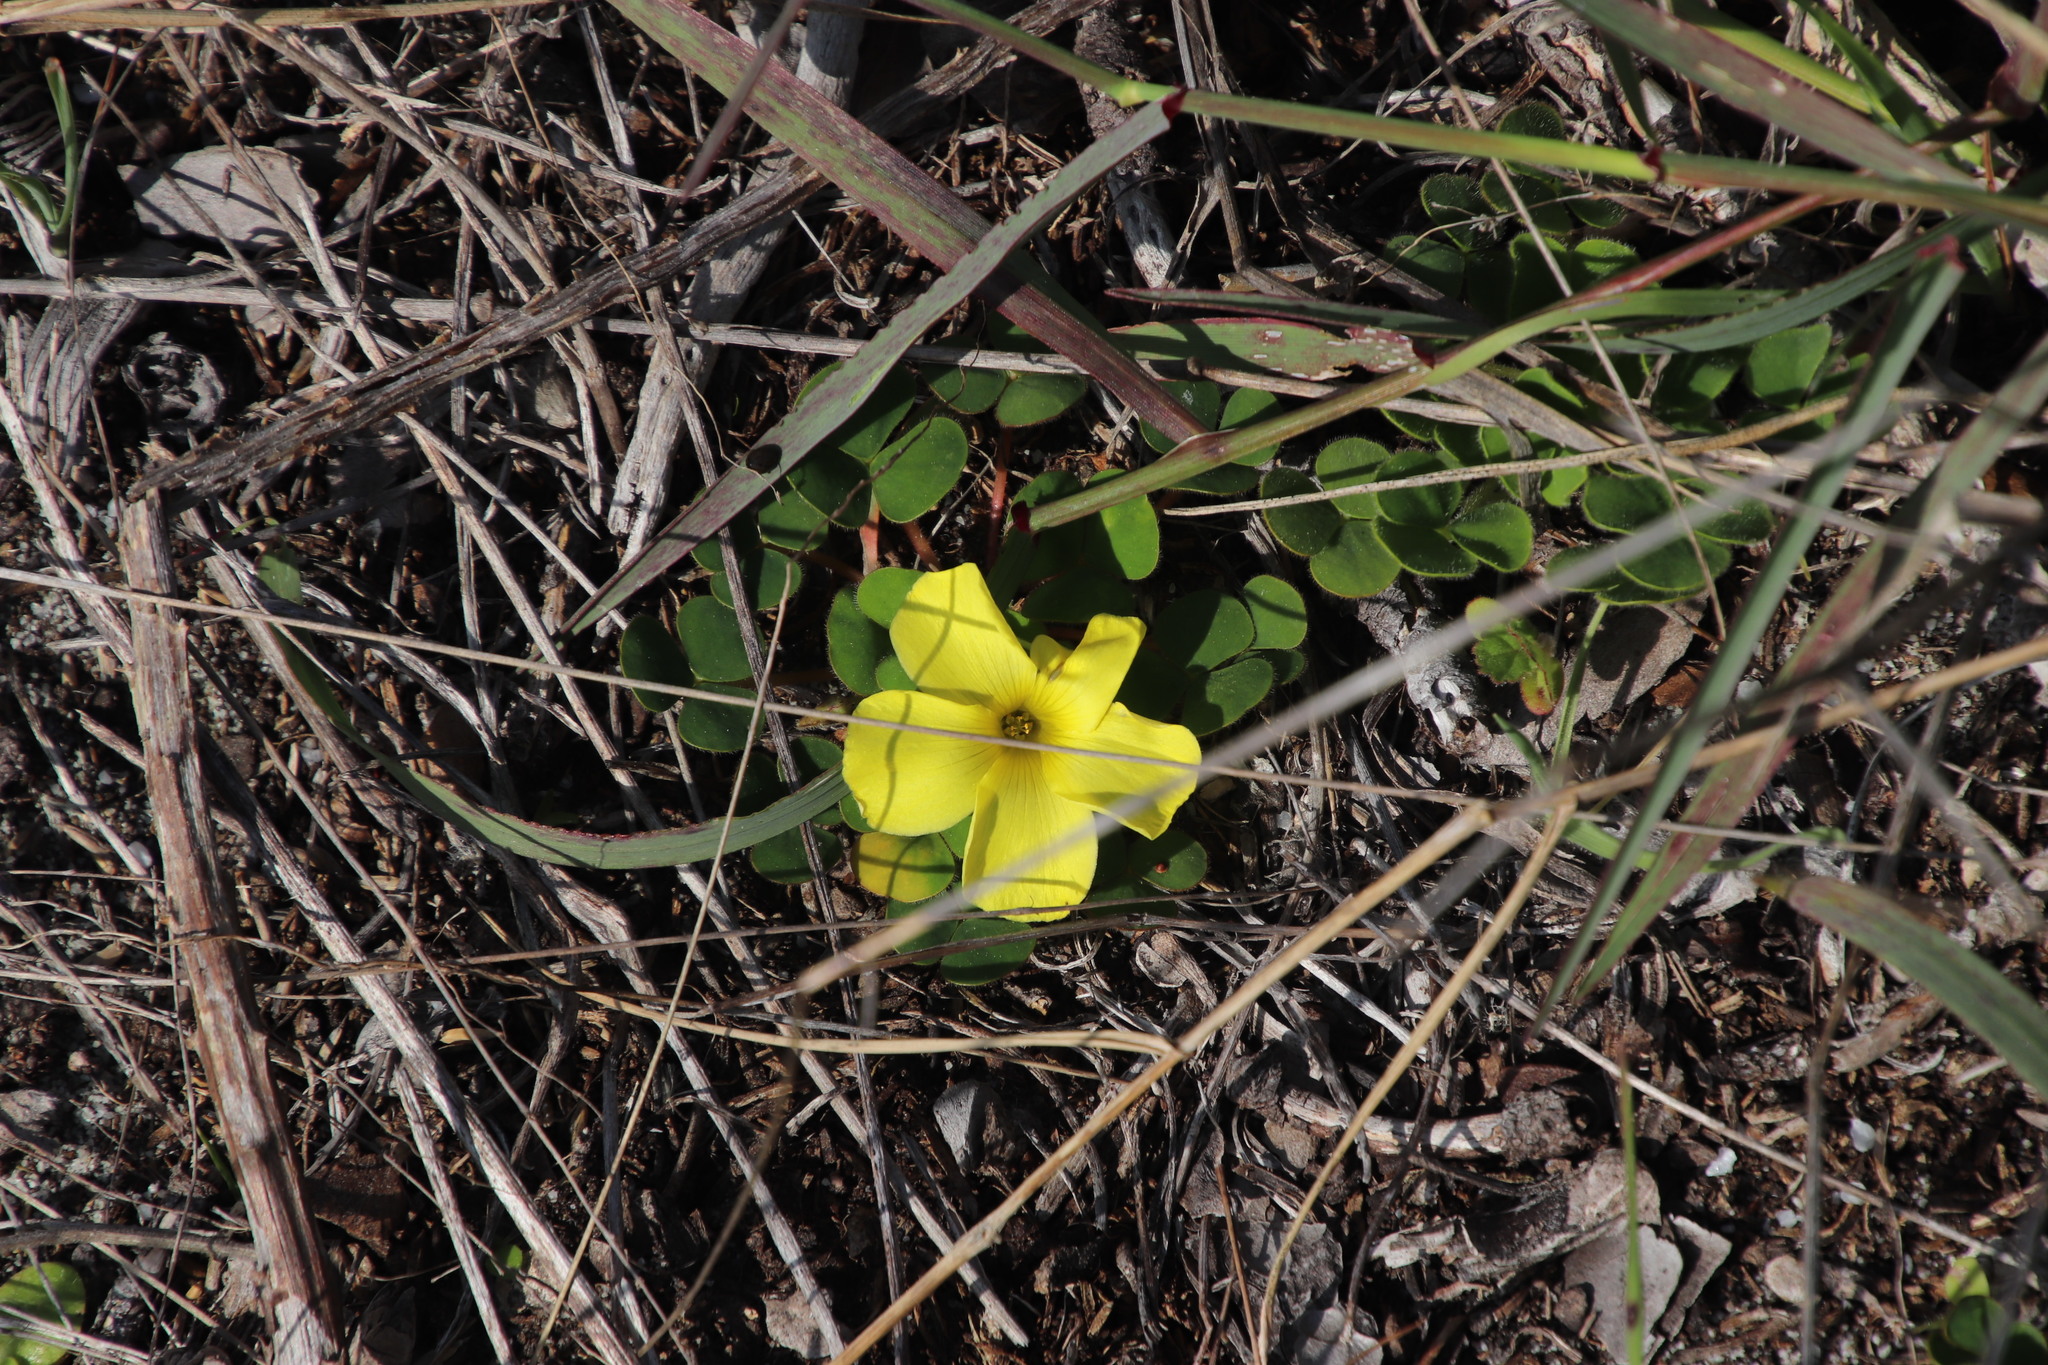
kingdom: Plantae
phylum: Tracheophyta
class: Magnoliopsida
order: Oxalidales
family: Oxalidaceae
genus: Oxalis
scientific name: Oxalis luteola
